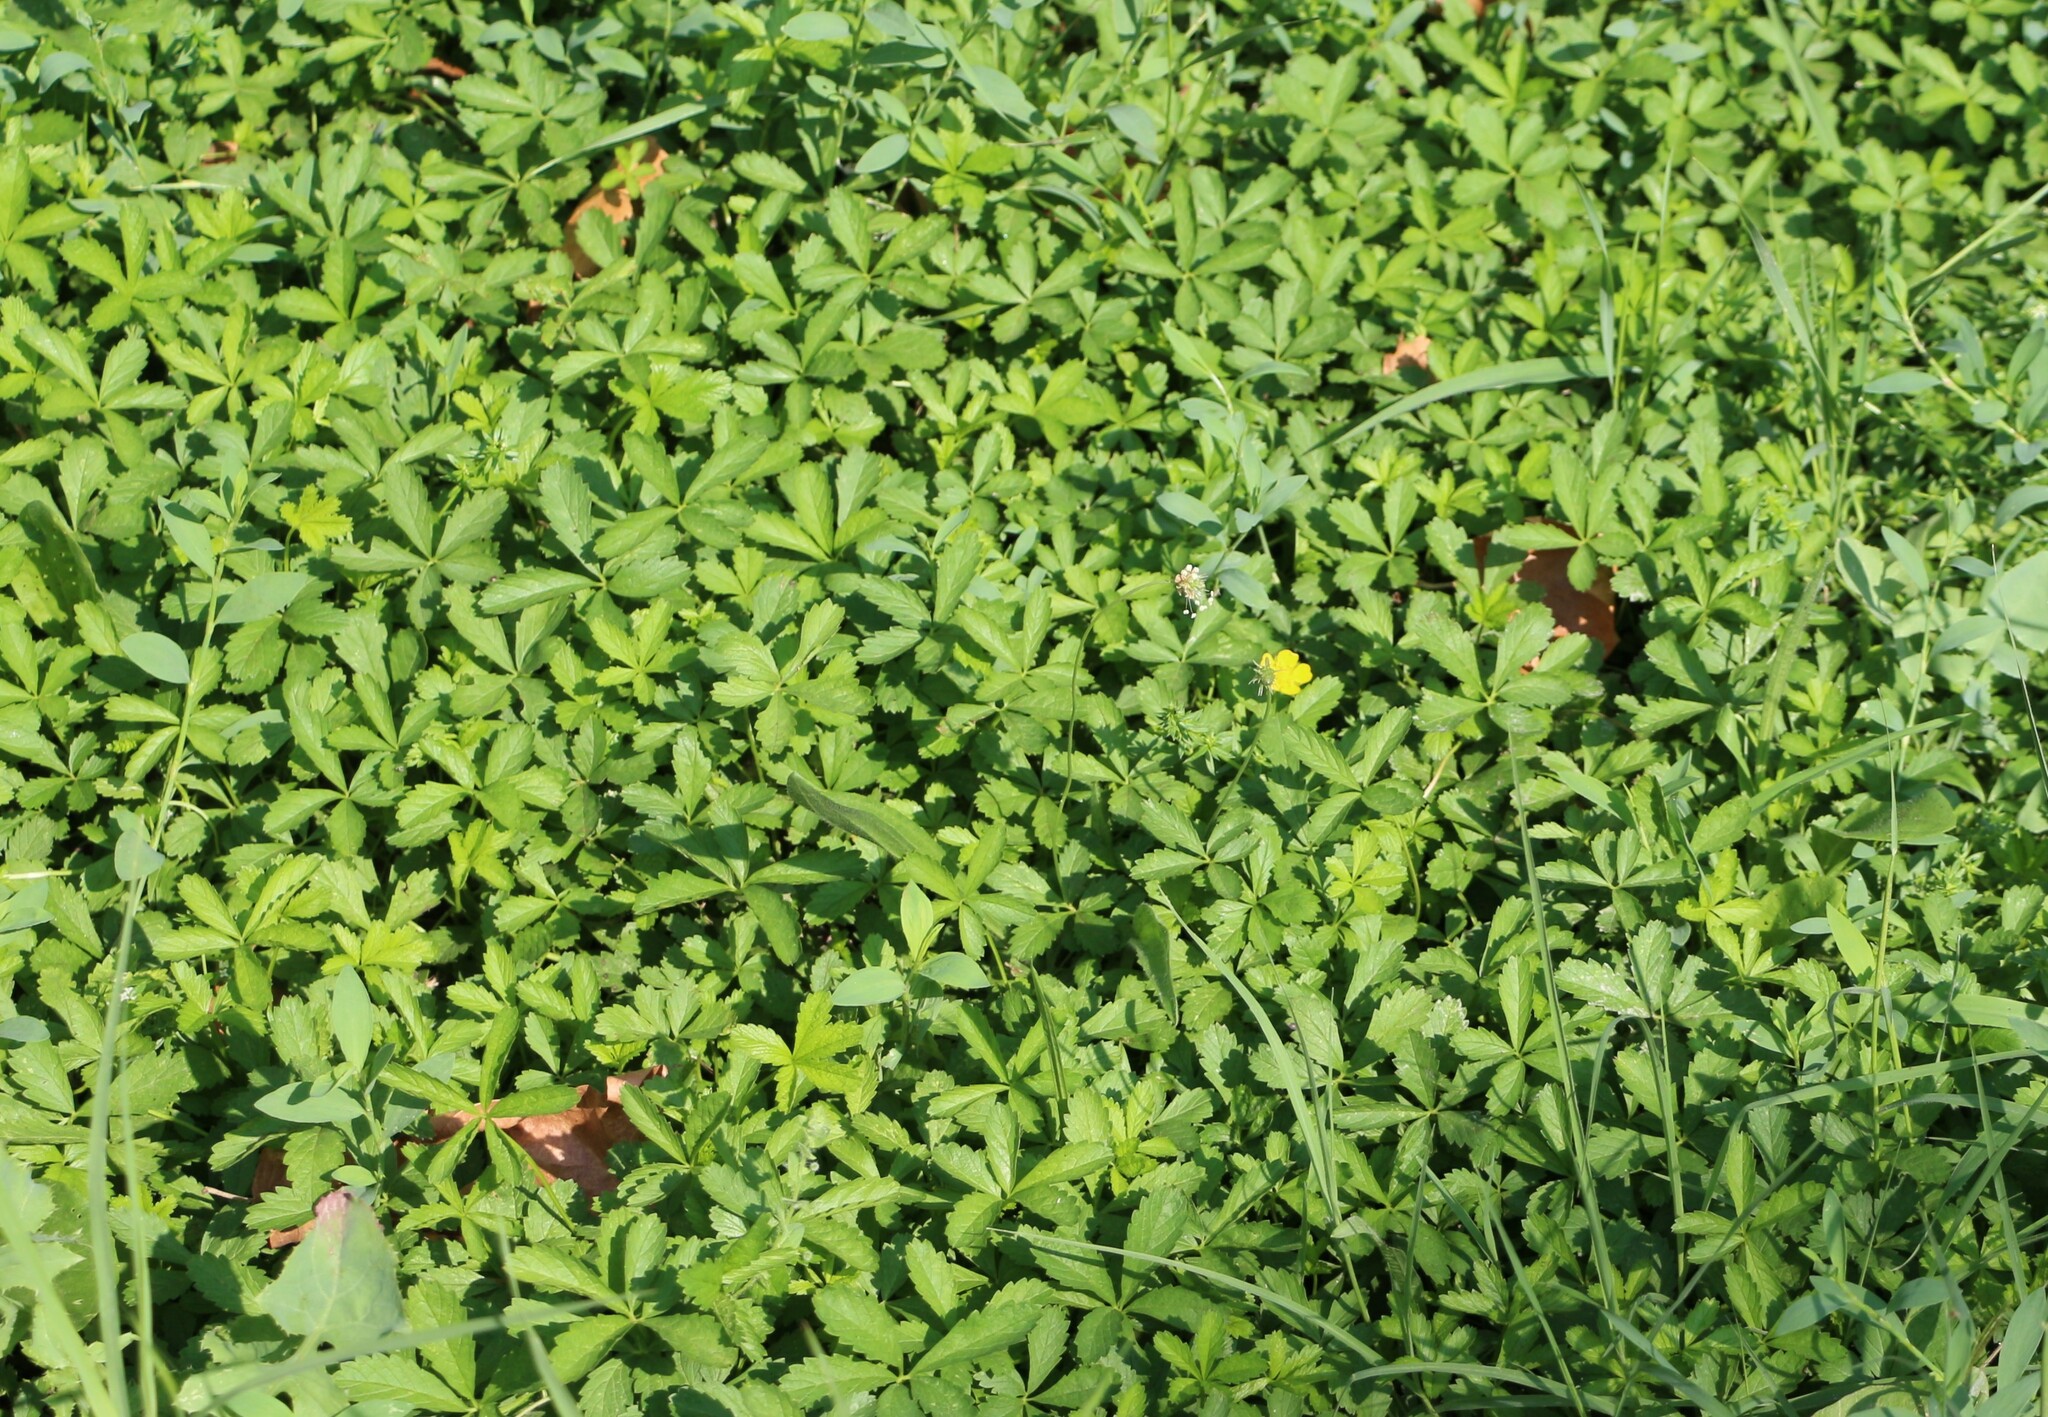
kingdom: Plantae
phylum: Tracheophyta
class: Magnoliopsida
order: Rosales
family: Rosaceae
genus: Potentilla
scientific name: Potentilla reptans
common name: Creeping cinquefoil
